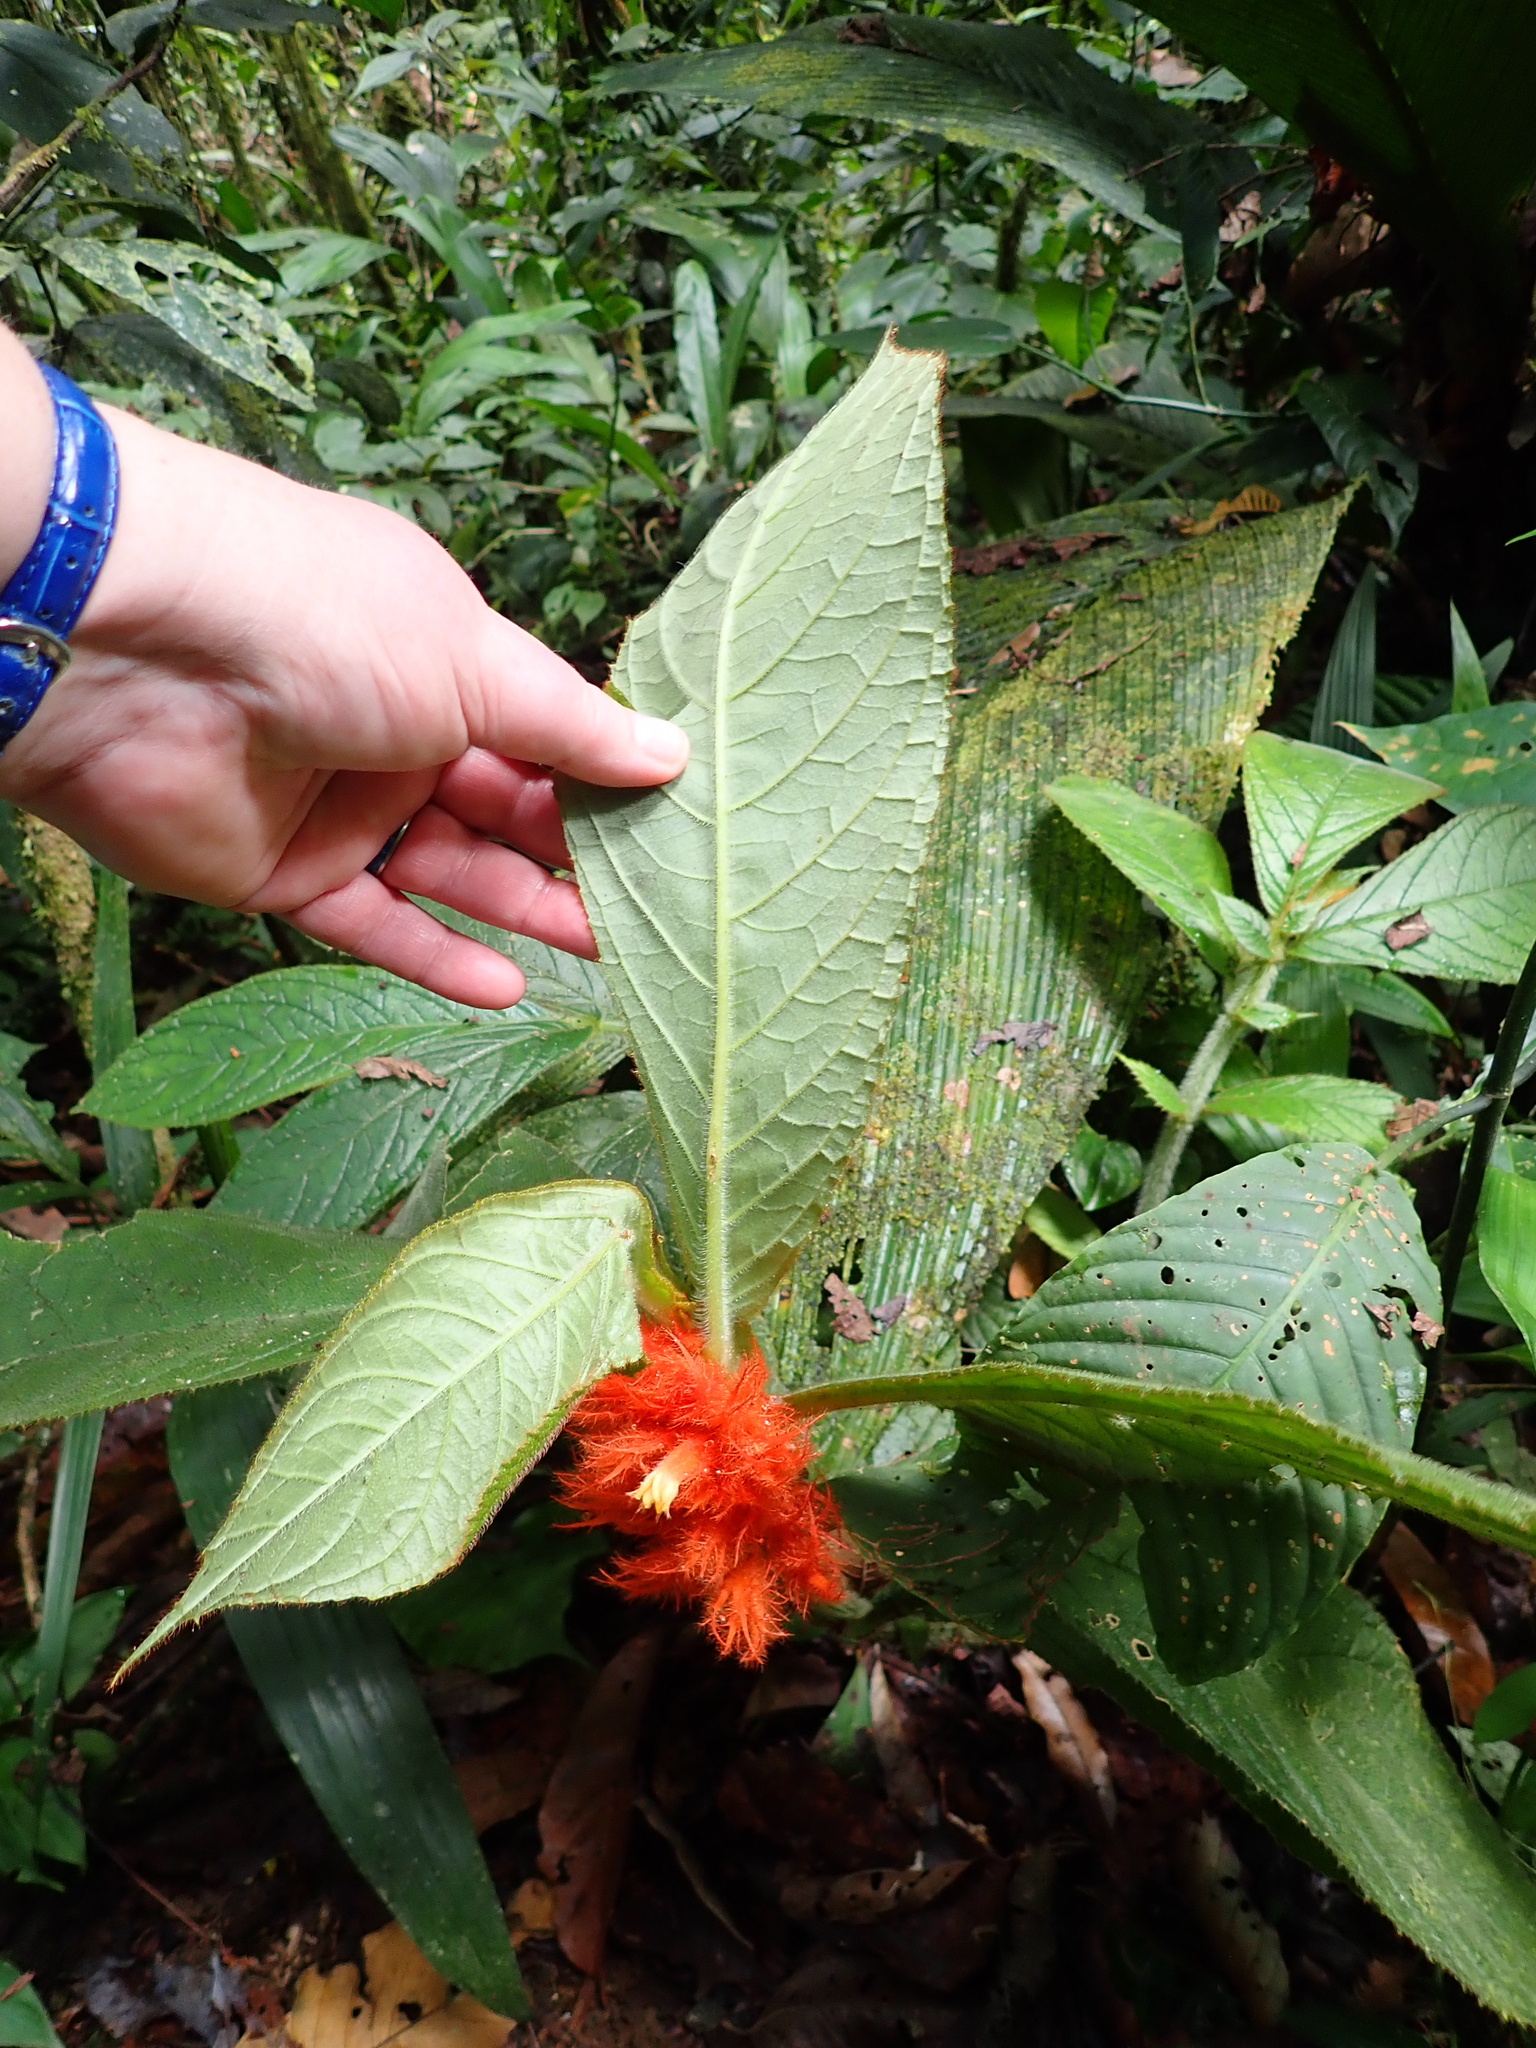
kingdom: Plantae
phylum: Tracheophyta
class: Magnoliopsida
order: Lamiales
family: Gesneriaceae
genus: Columnea
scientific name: Columnea purpurata
